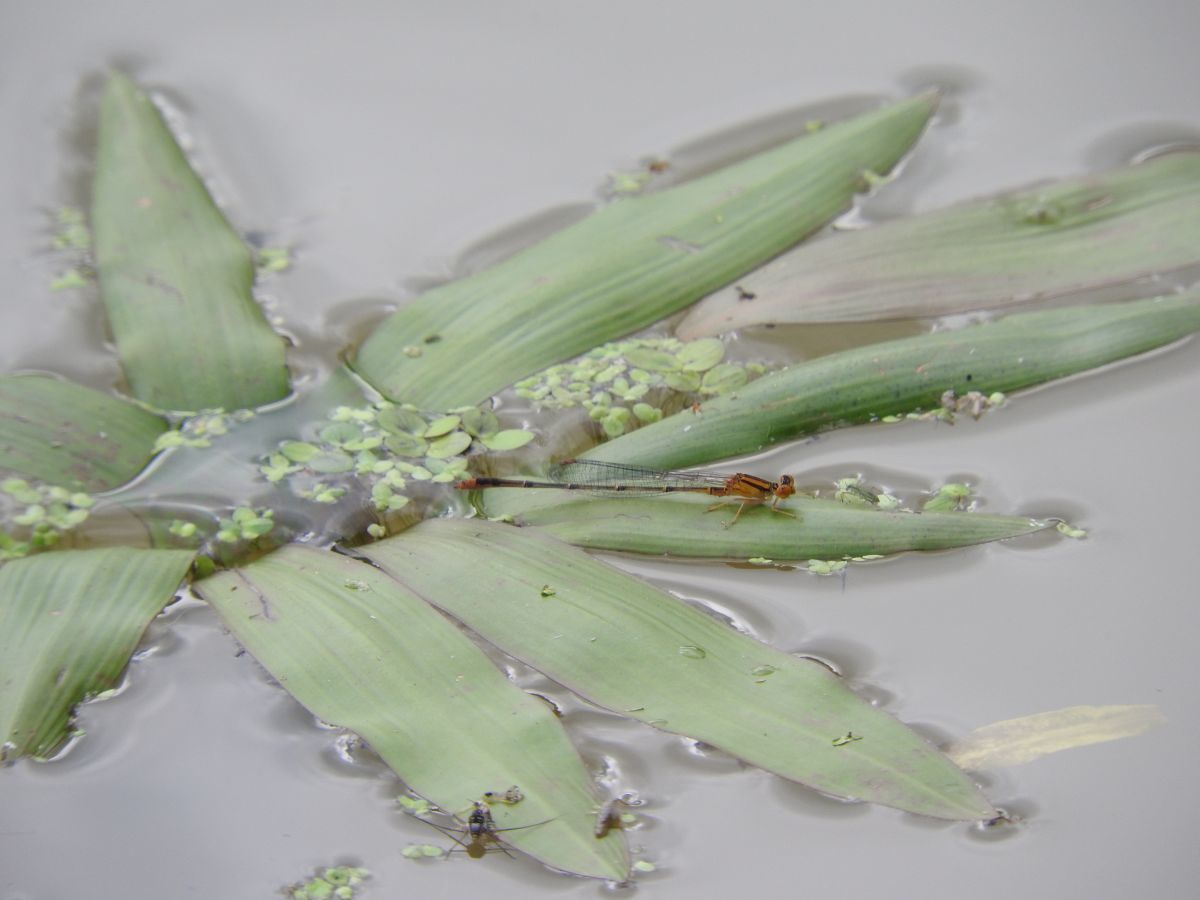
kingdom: Animalia
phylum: Arthropoda
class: Insecta
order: Odonata
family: Coenagrionidae
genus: Enallagma
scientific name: Enallagma signatum
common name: Orange bluet
